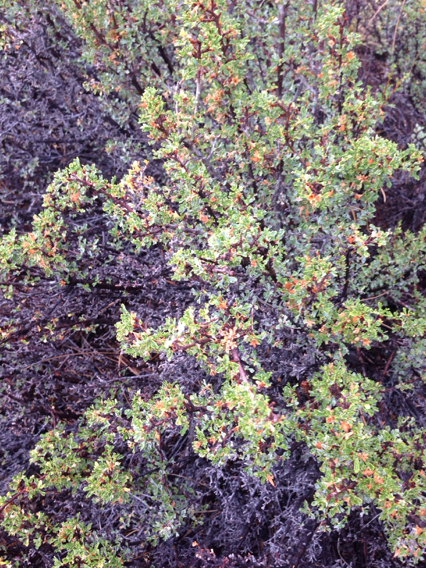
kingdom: Plantae
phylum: Tracheophyta
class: Magnoliopsida
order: Rosales
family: Rosaceae
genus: Purshia
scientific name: Purshia tridentata
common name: Antelope bitterbrush
